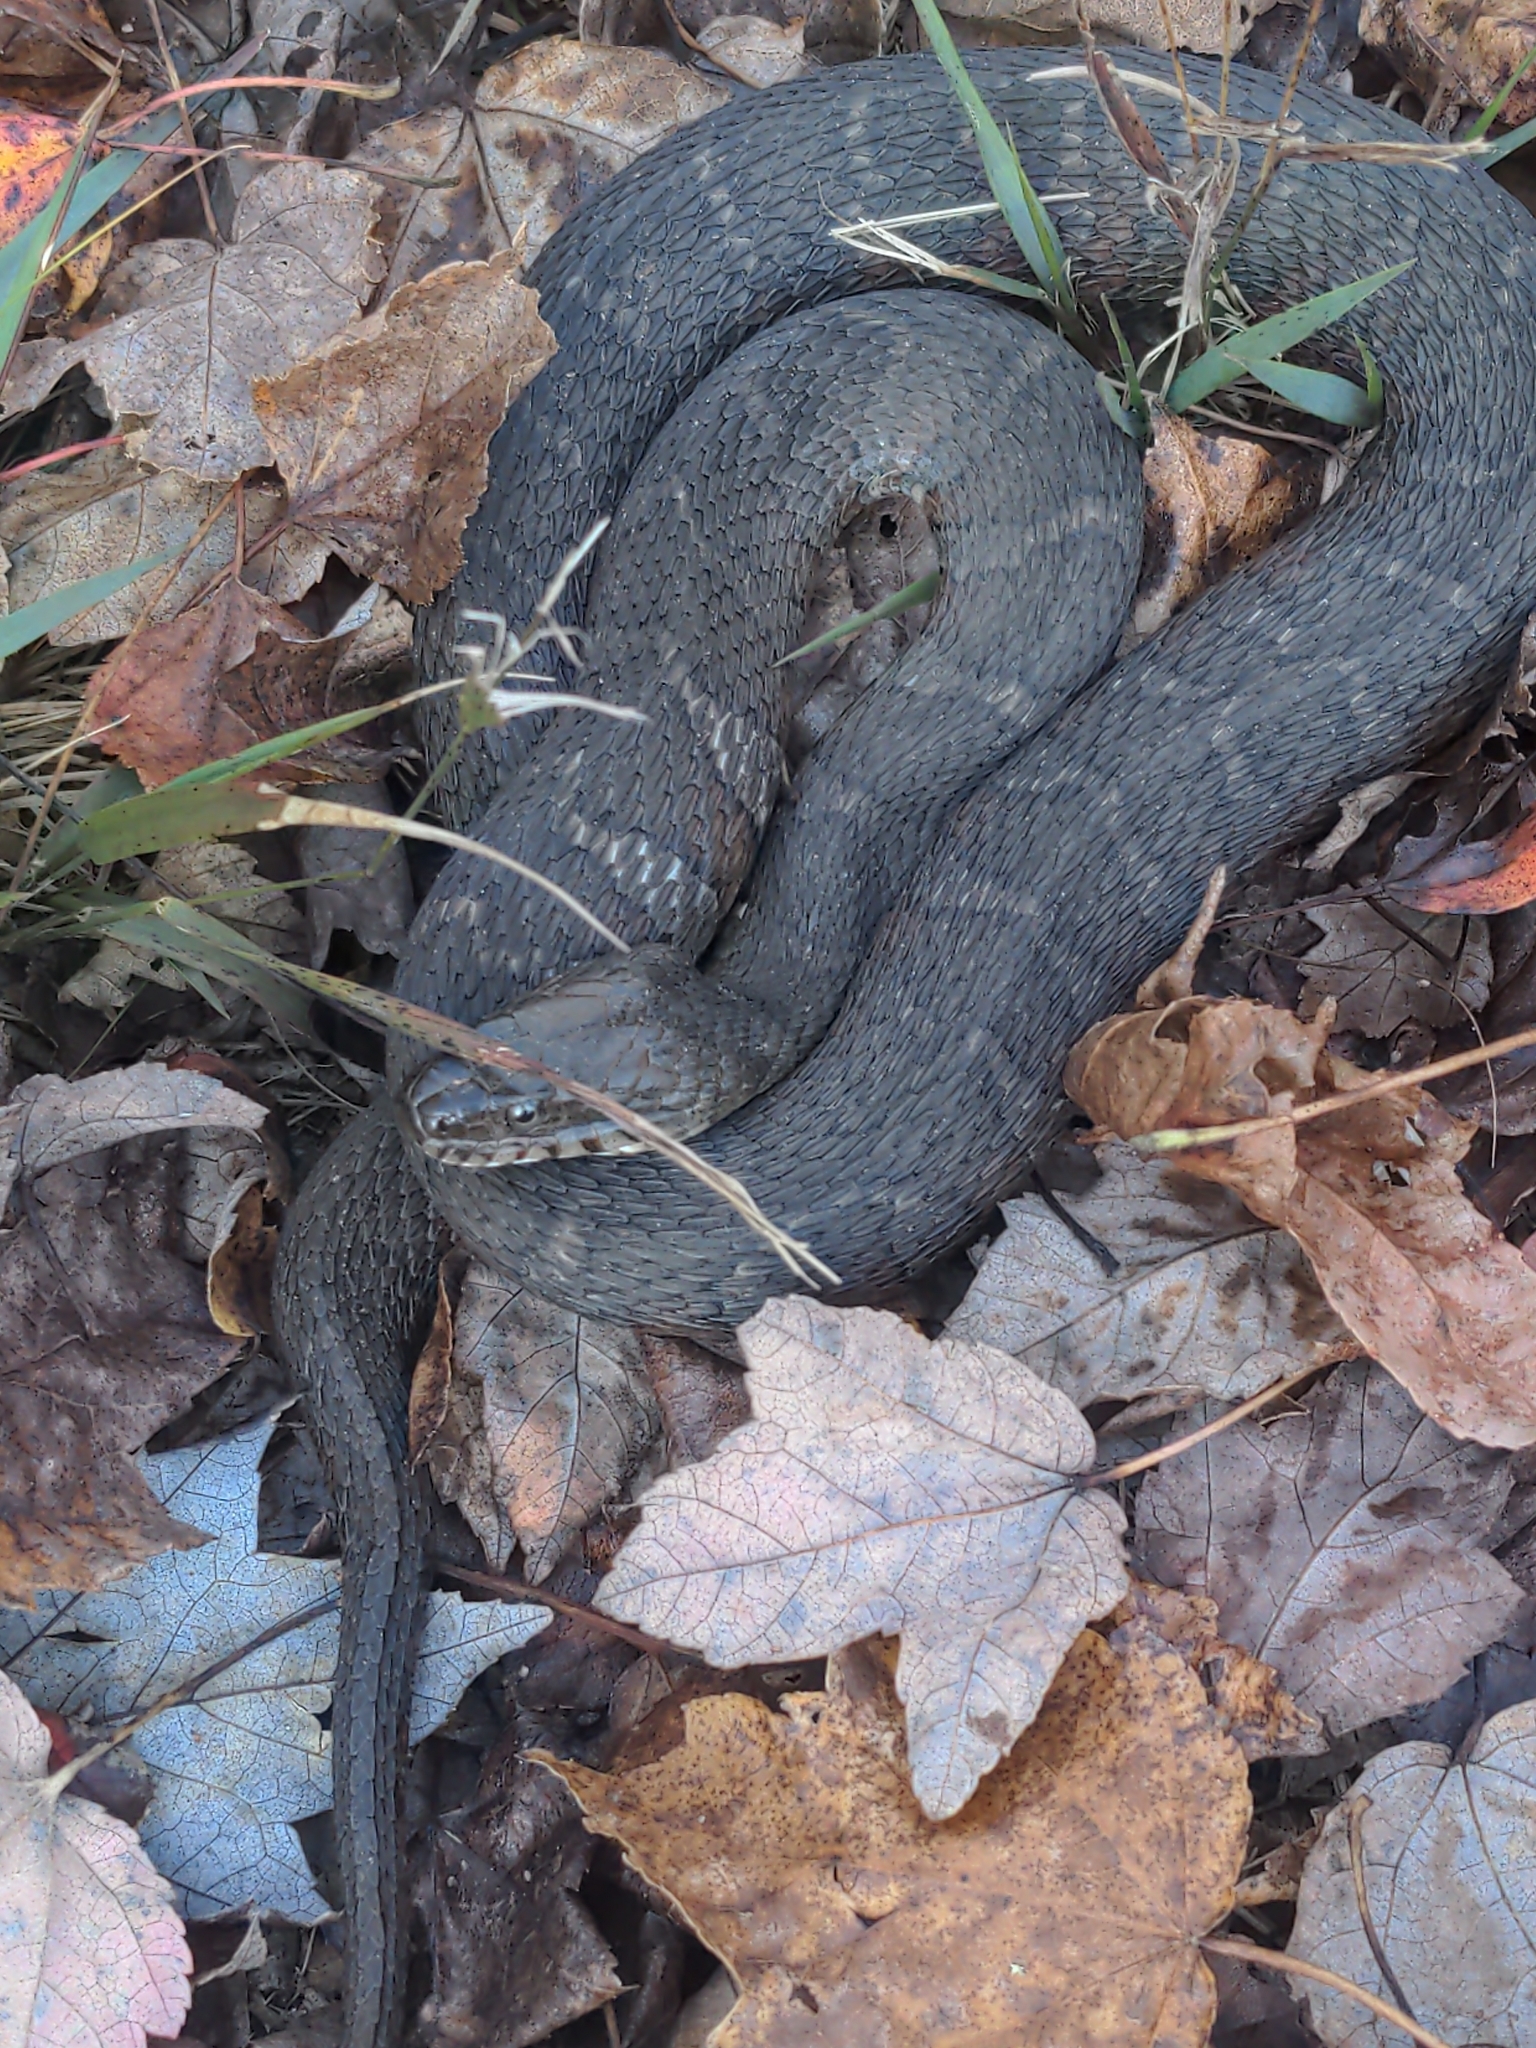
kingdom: Animalia
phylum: Chordata
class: Squamata
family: Colubridae
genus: Nerodia
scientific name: Nerodia sipedon
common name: Northern water snake
